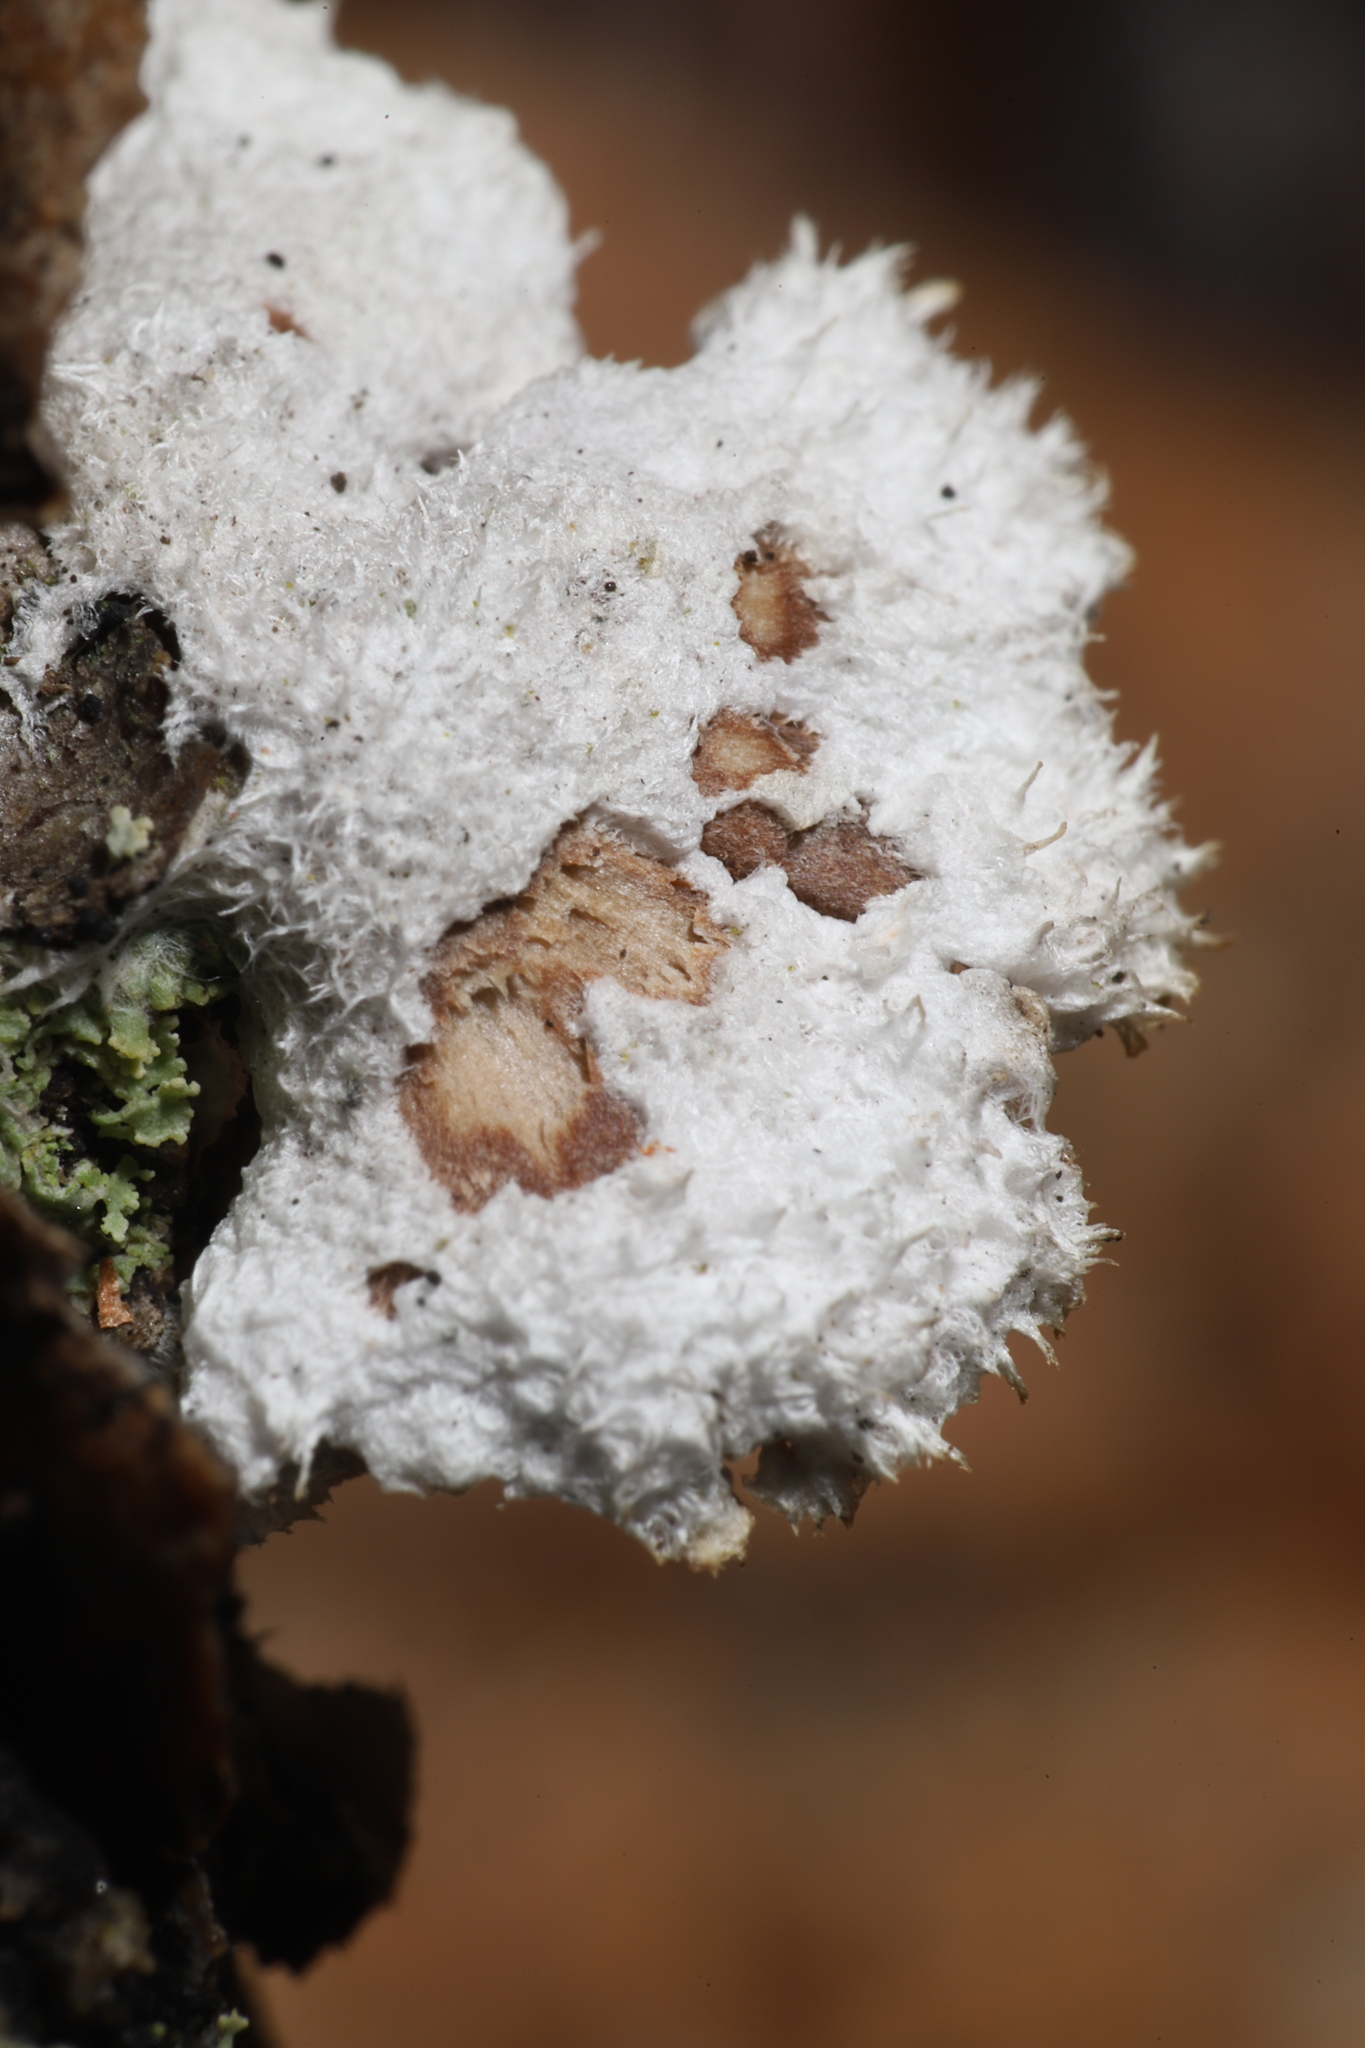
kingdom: Fungi
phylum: Basidiomycota
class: Agaricomycetes
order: Agaricales
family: Schizophyllaceae
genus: Schizophyllum
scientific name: Schizophyllum commune
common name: Common porecrust
